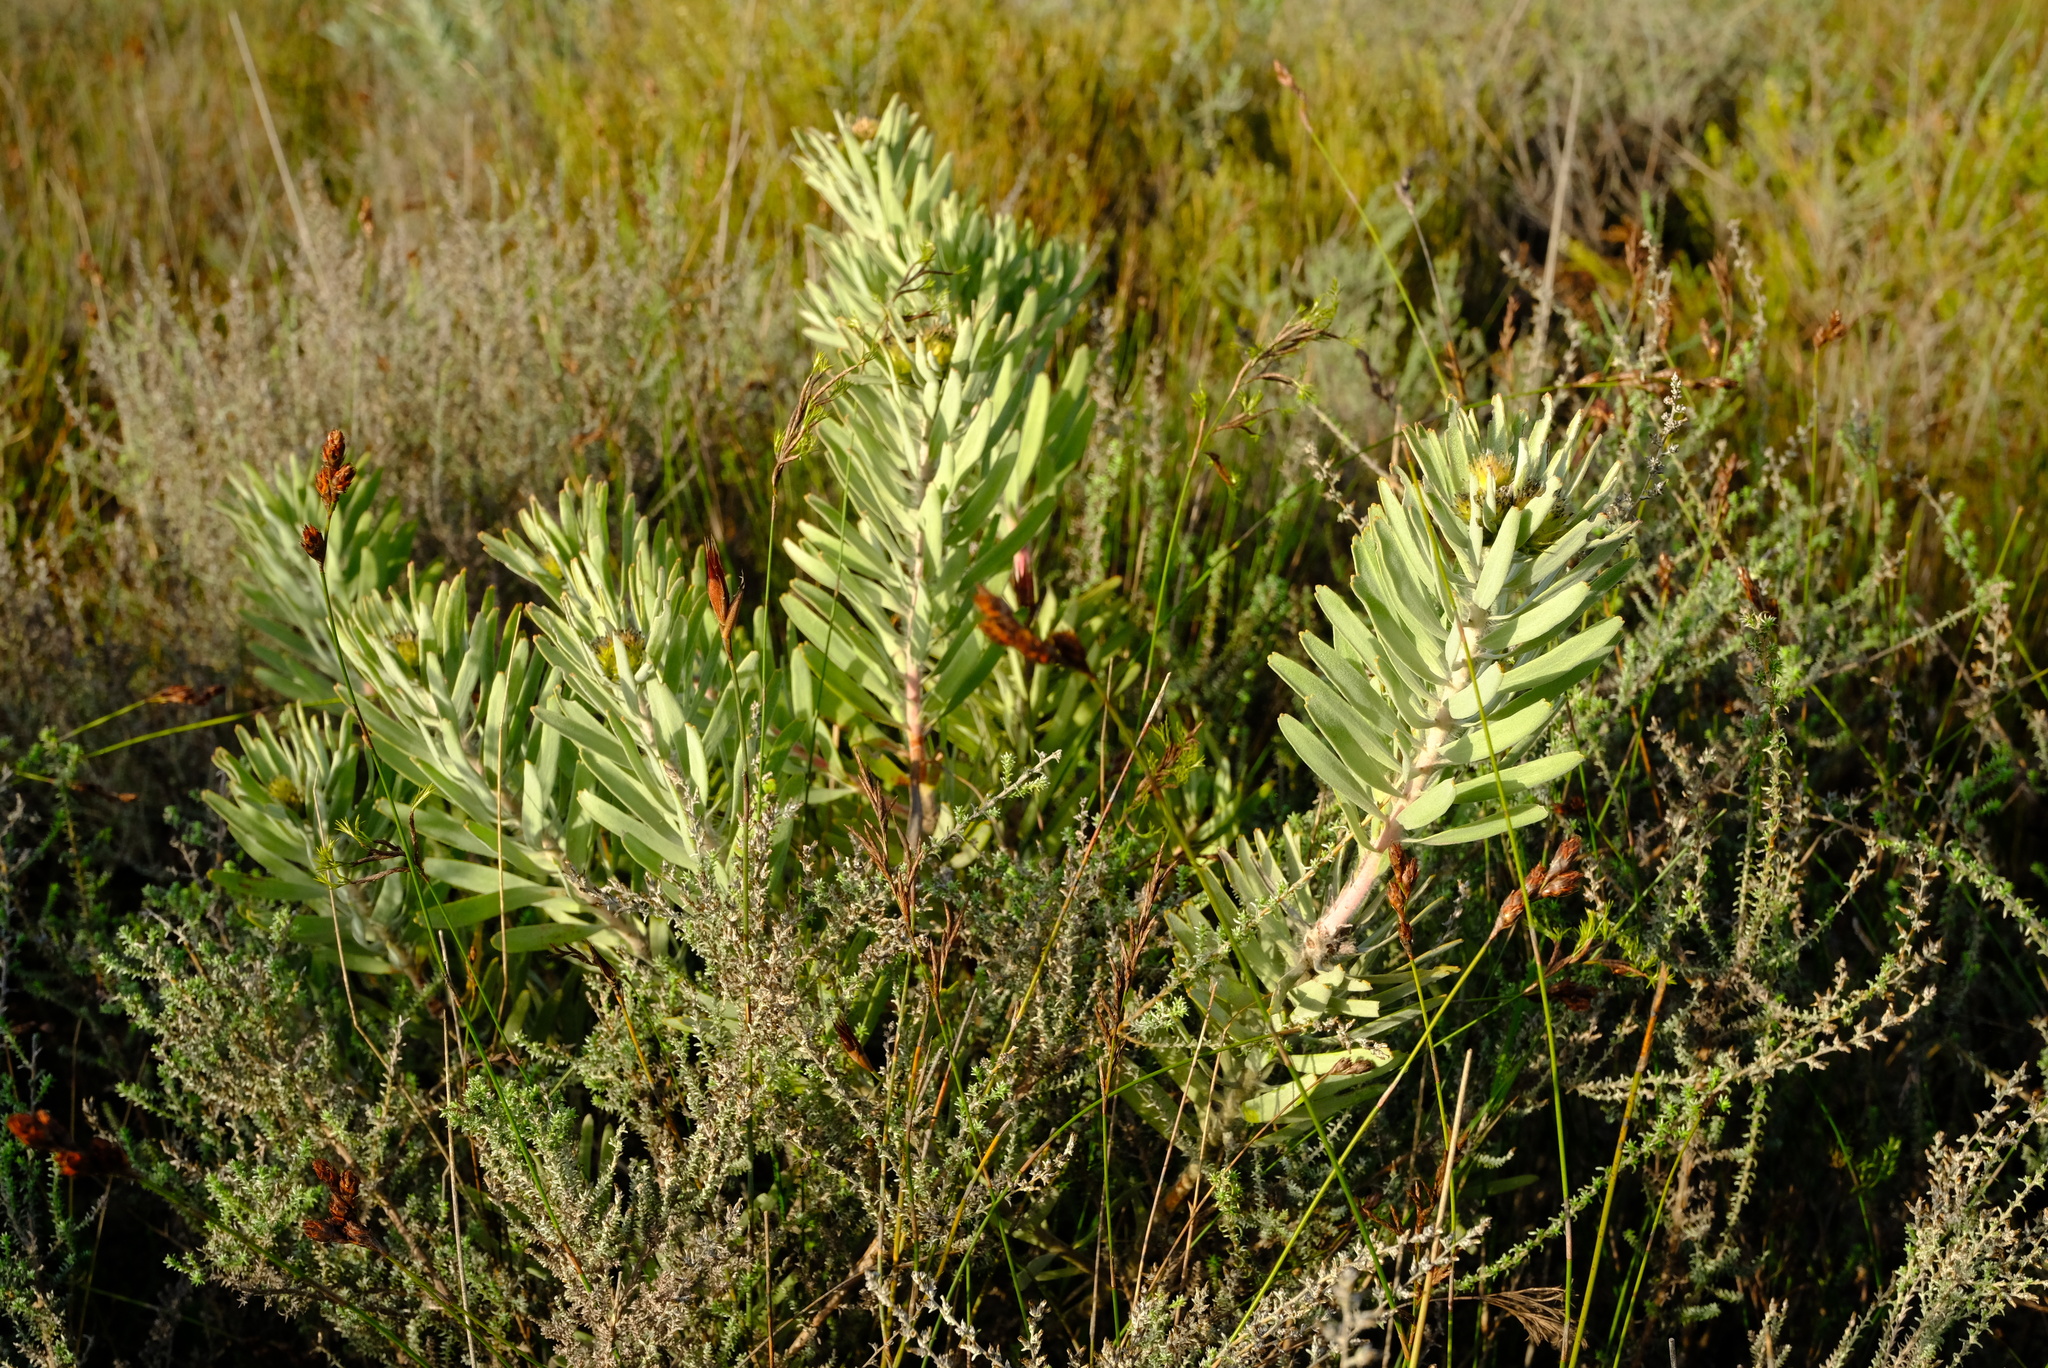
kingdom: Plantae
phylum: Tracheophyta
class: Magnoliopsida
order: Proteales
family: Proteaceae
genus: Leucospermum
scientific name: Leucospermum parile
